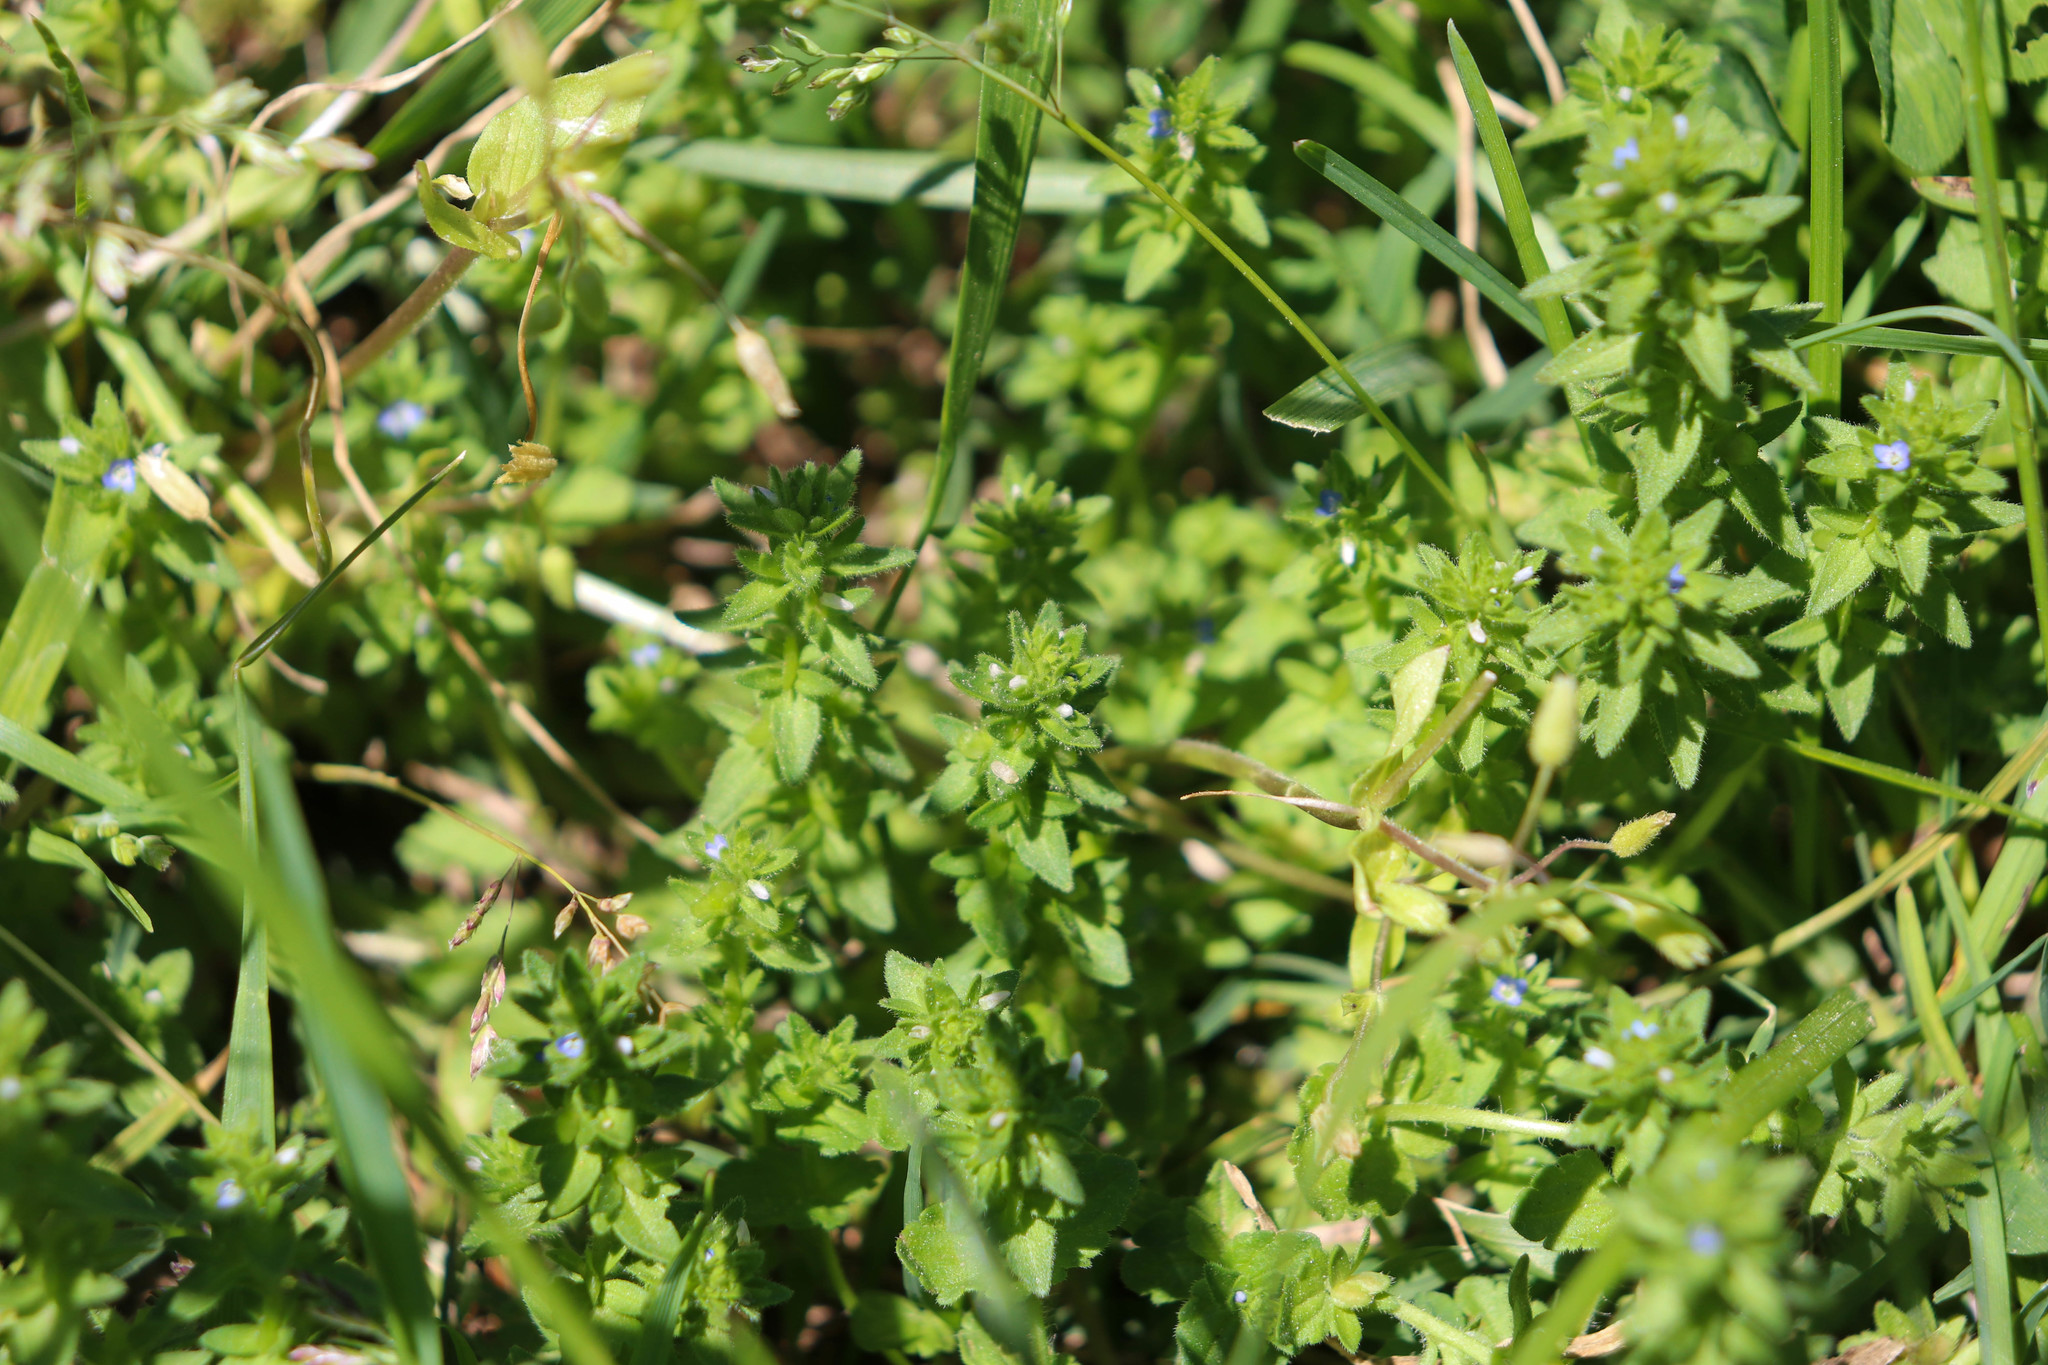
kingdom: Plantae
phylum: Tracheophyta
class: Magnoliopsida
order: Lamiales
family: Plantaginaceae
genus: Veronica
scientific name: Veronica arvensis
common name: Corn speedwell
